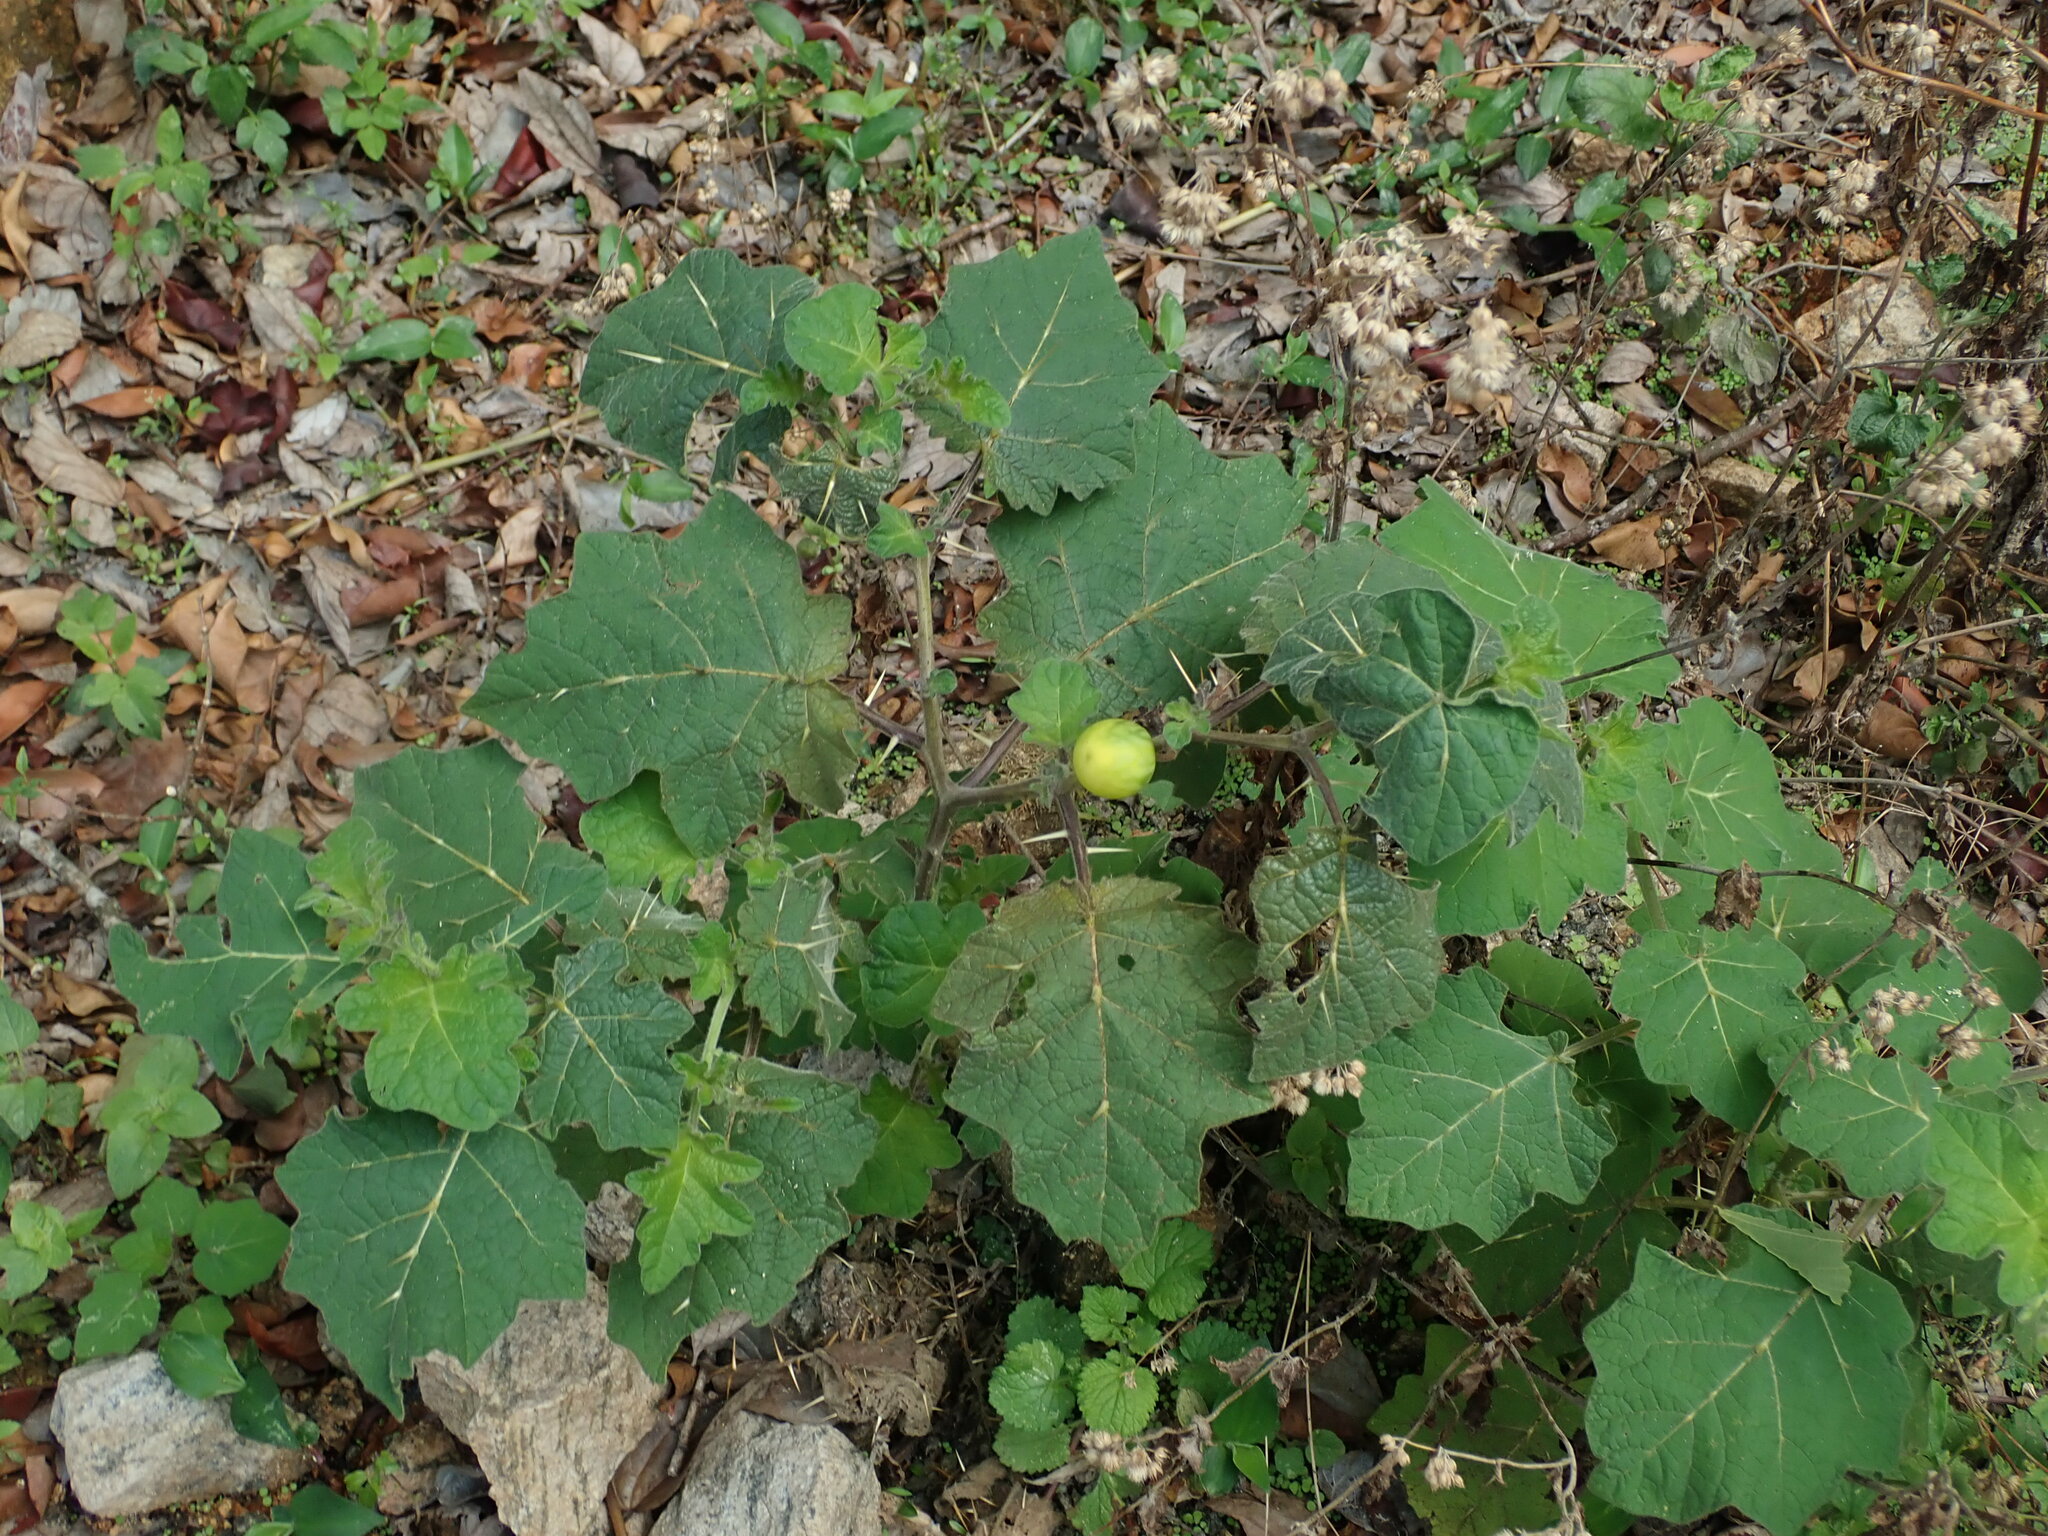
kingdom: Plantae
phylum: Tracheophyta
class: Magnoliopsida
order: Solanales
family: Solanaceae
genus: Solanum
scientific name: Solanum viarum
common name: Tropical soda apple
